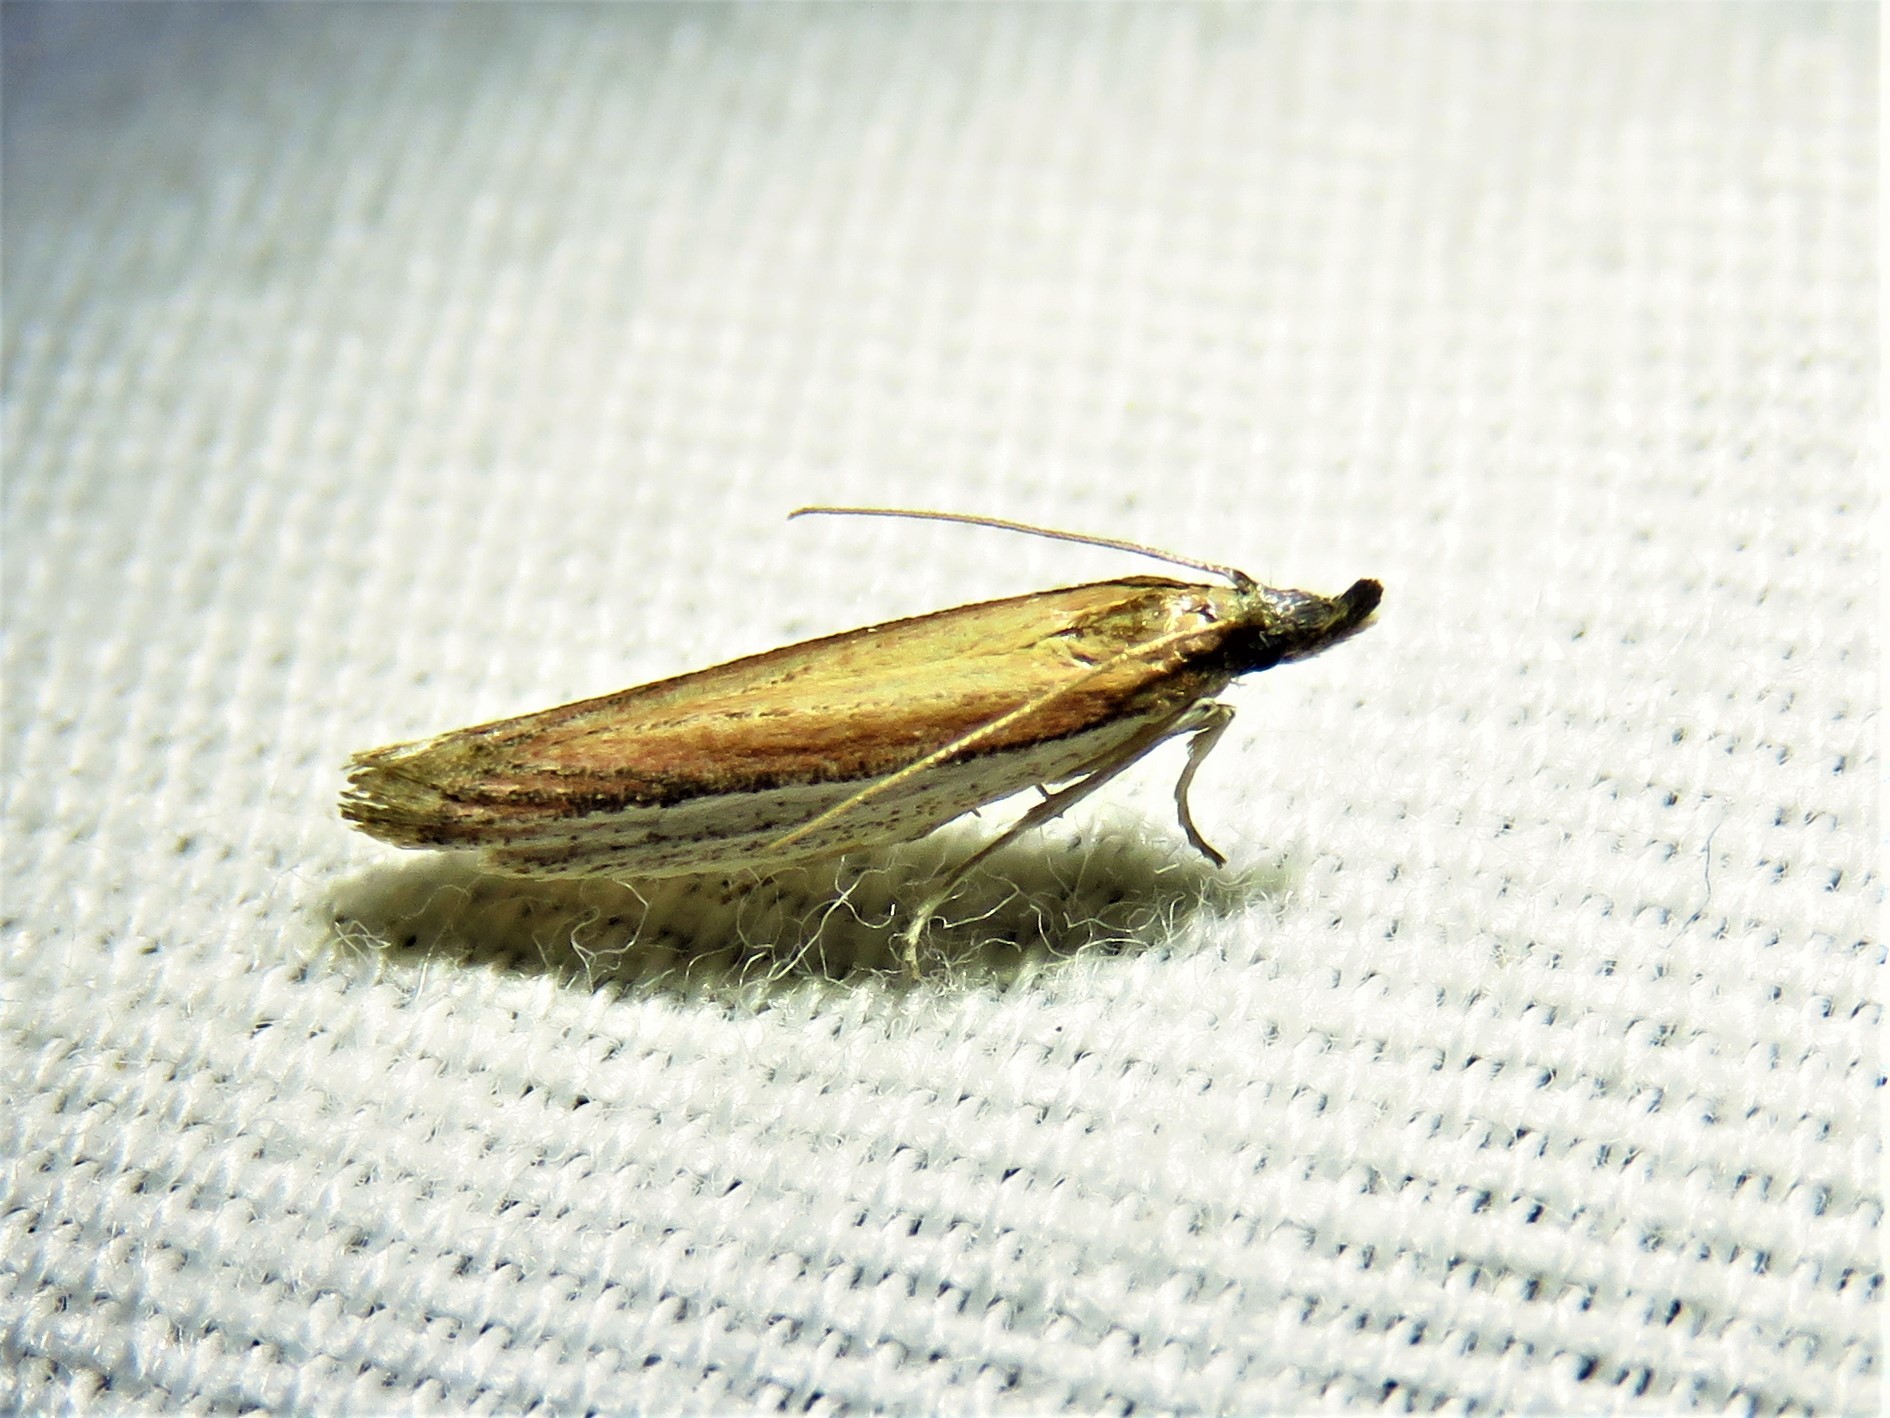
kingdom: Animalia
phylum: Arthropoda
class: Insecta
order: Lepidoptera
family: Pyralidae
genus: Tampa
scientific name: Tampa dimediatella
